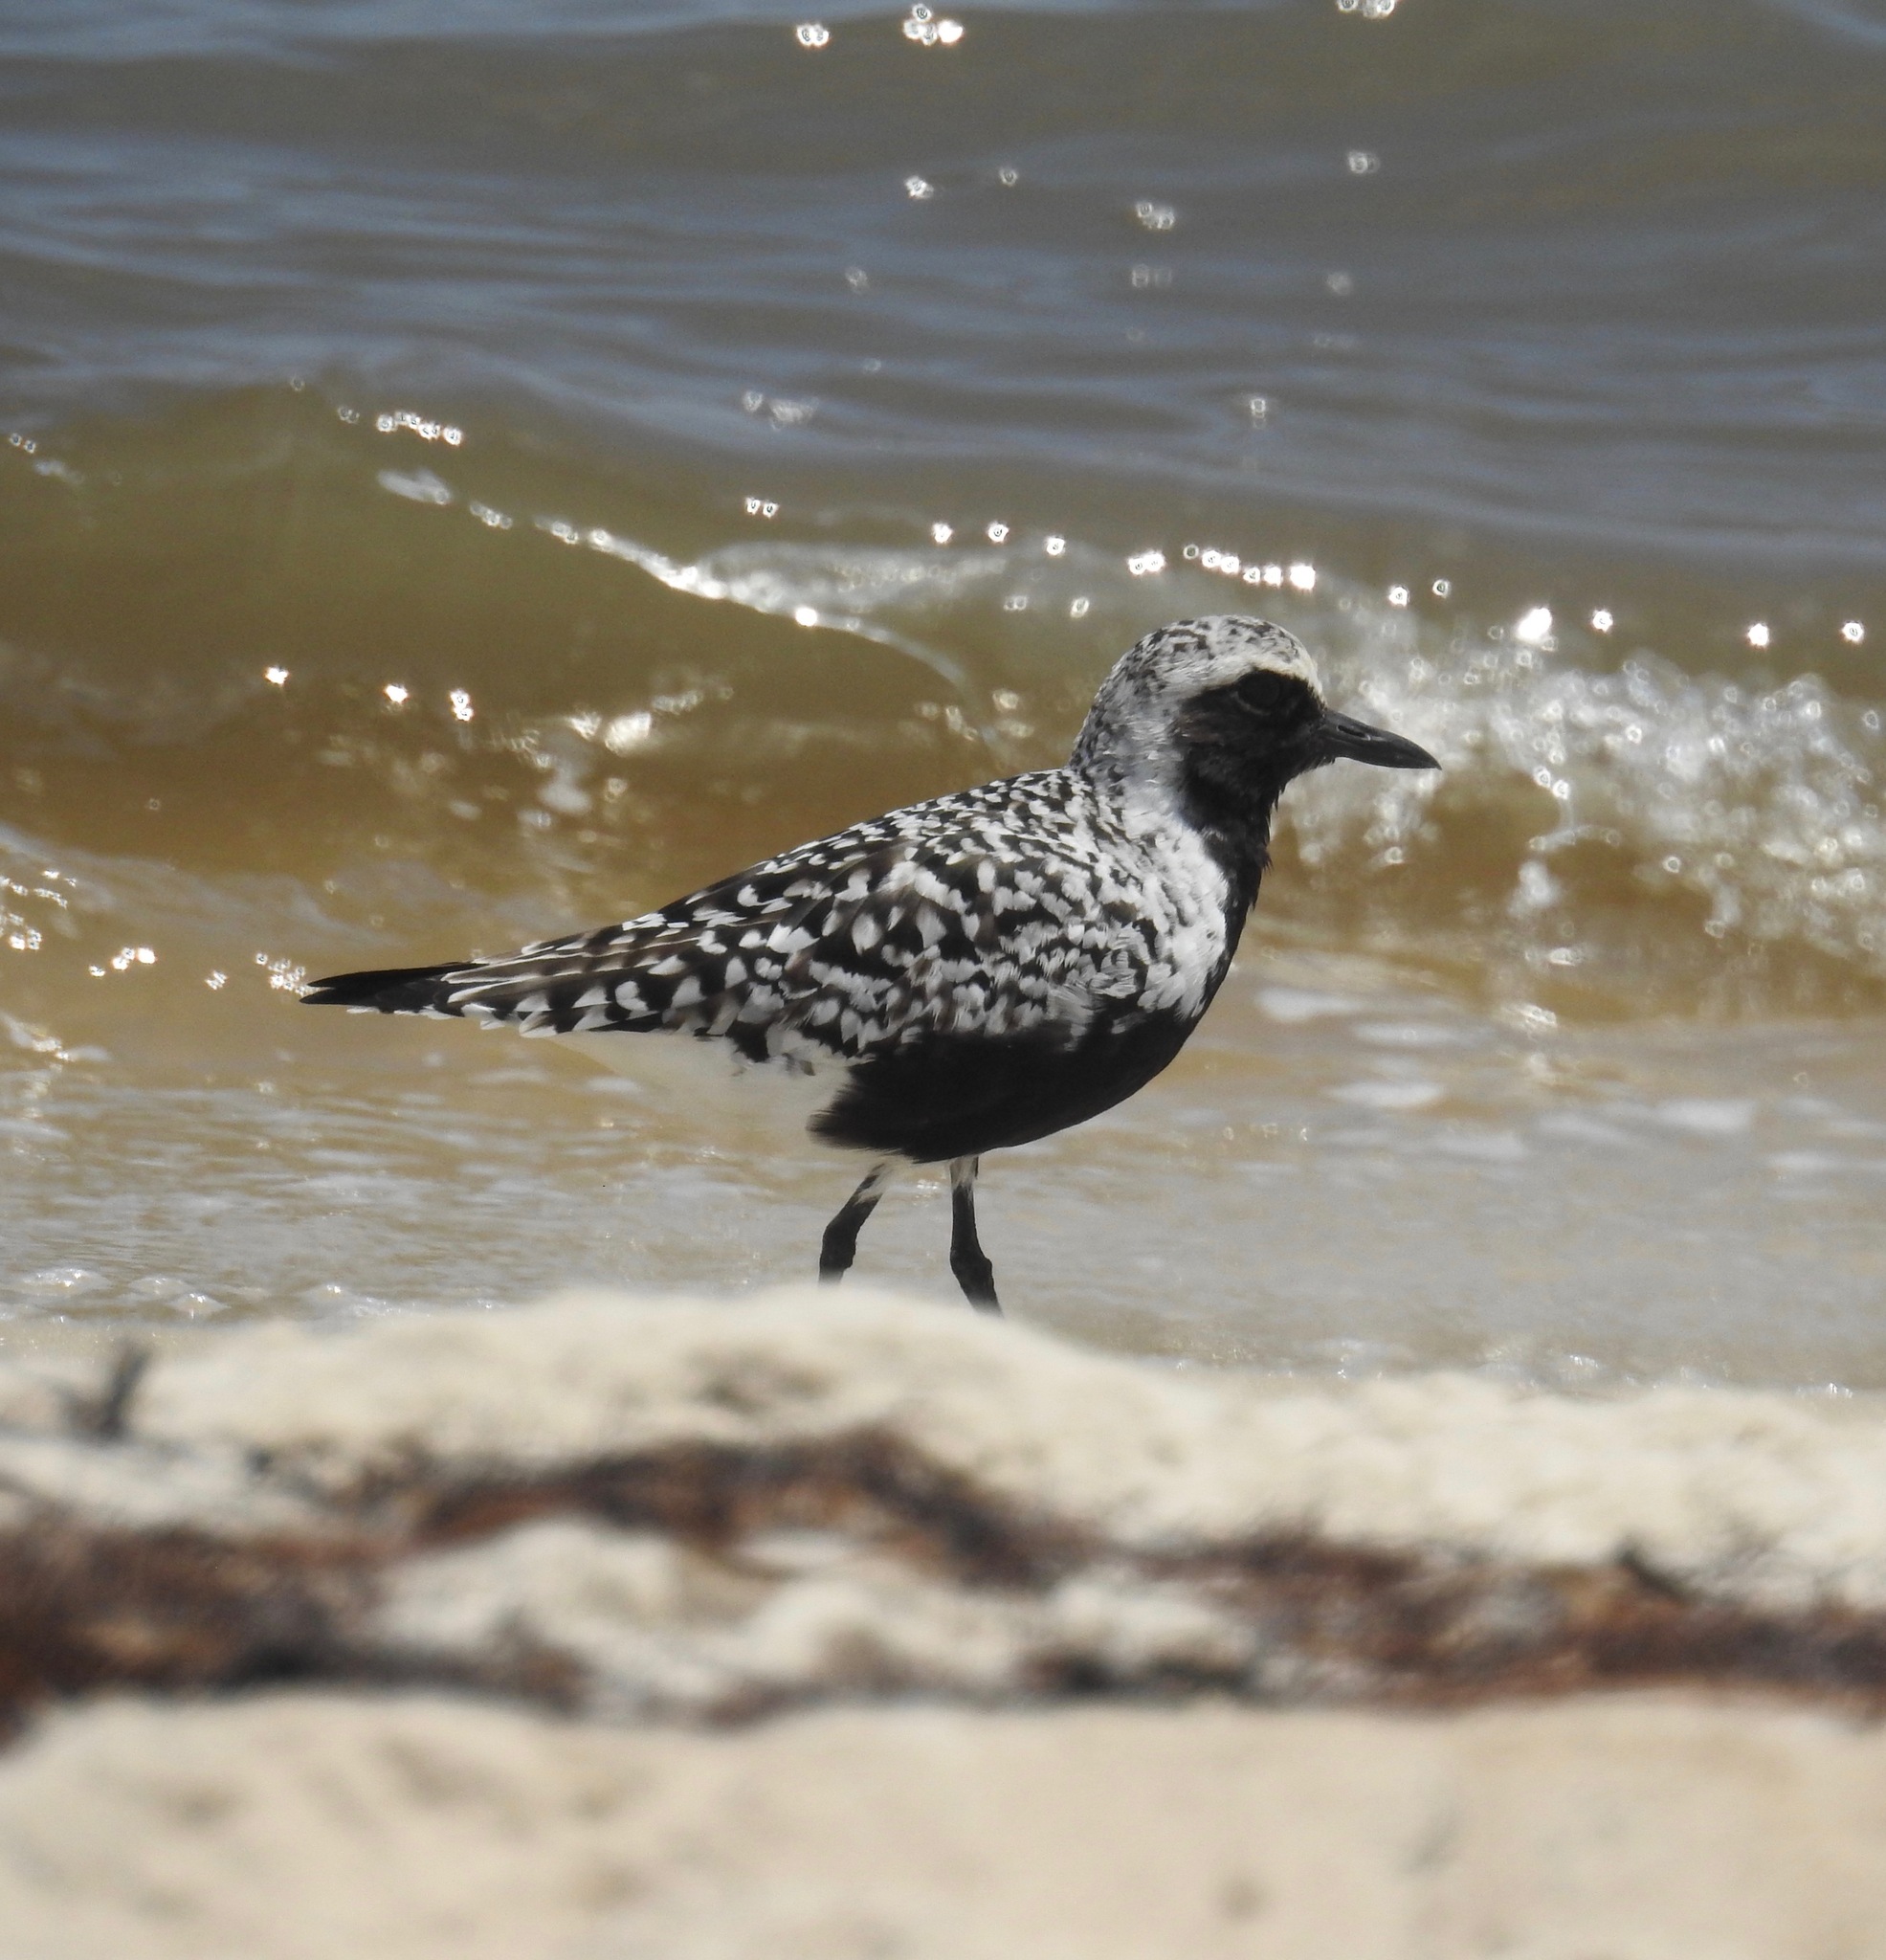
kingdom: Animalia
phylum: Chordata
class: Aves
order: Charadriiformes
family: Charadriidae
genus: Pluvialis
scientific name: Pluvialis squatarola
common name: Grey plover
